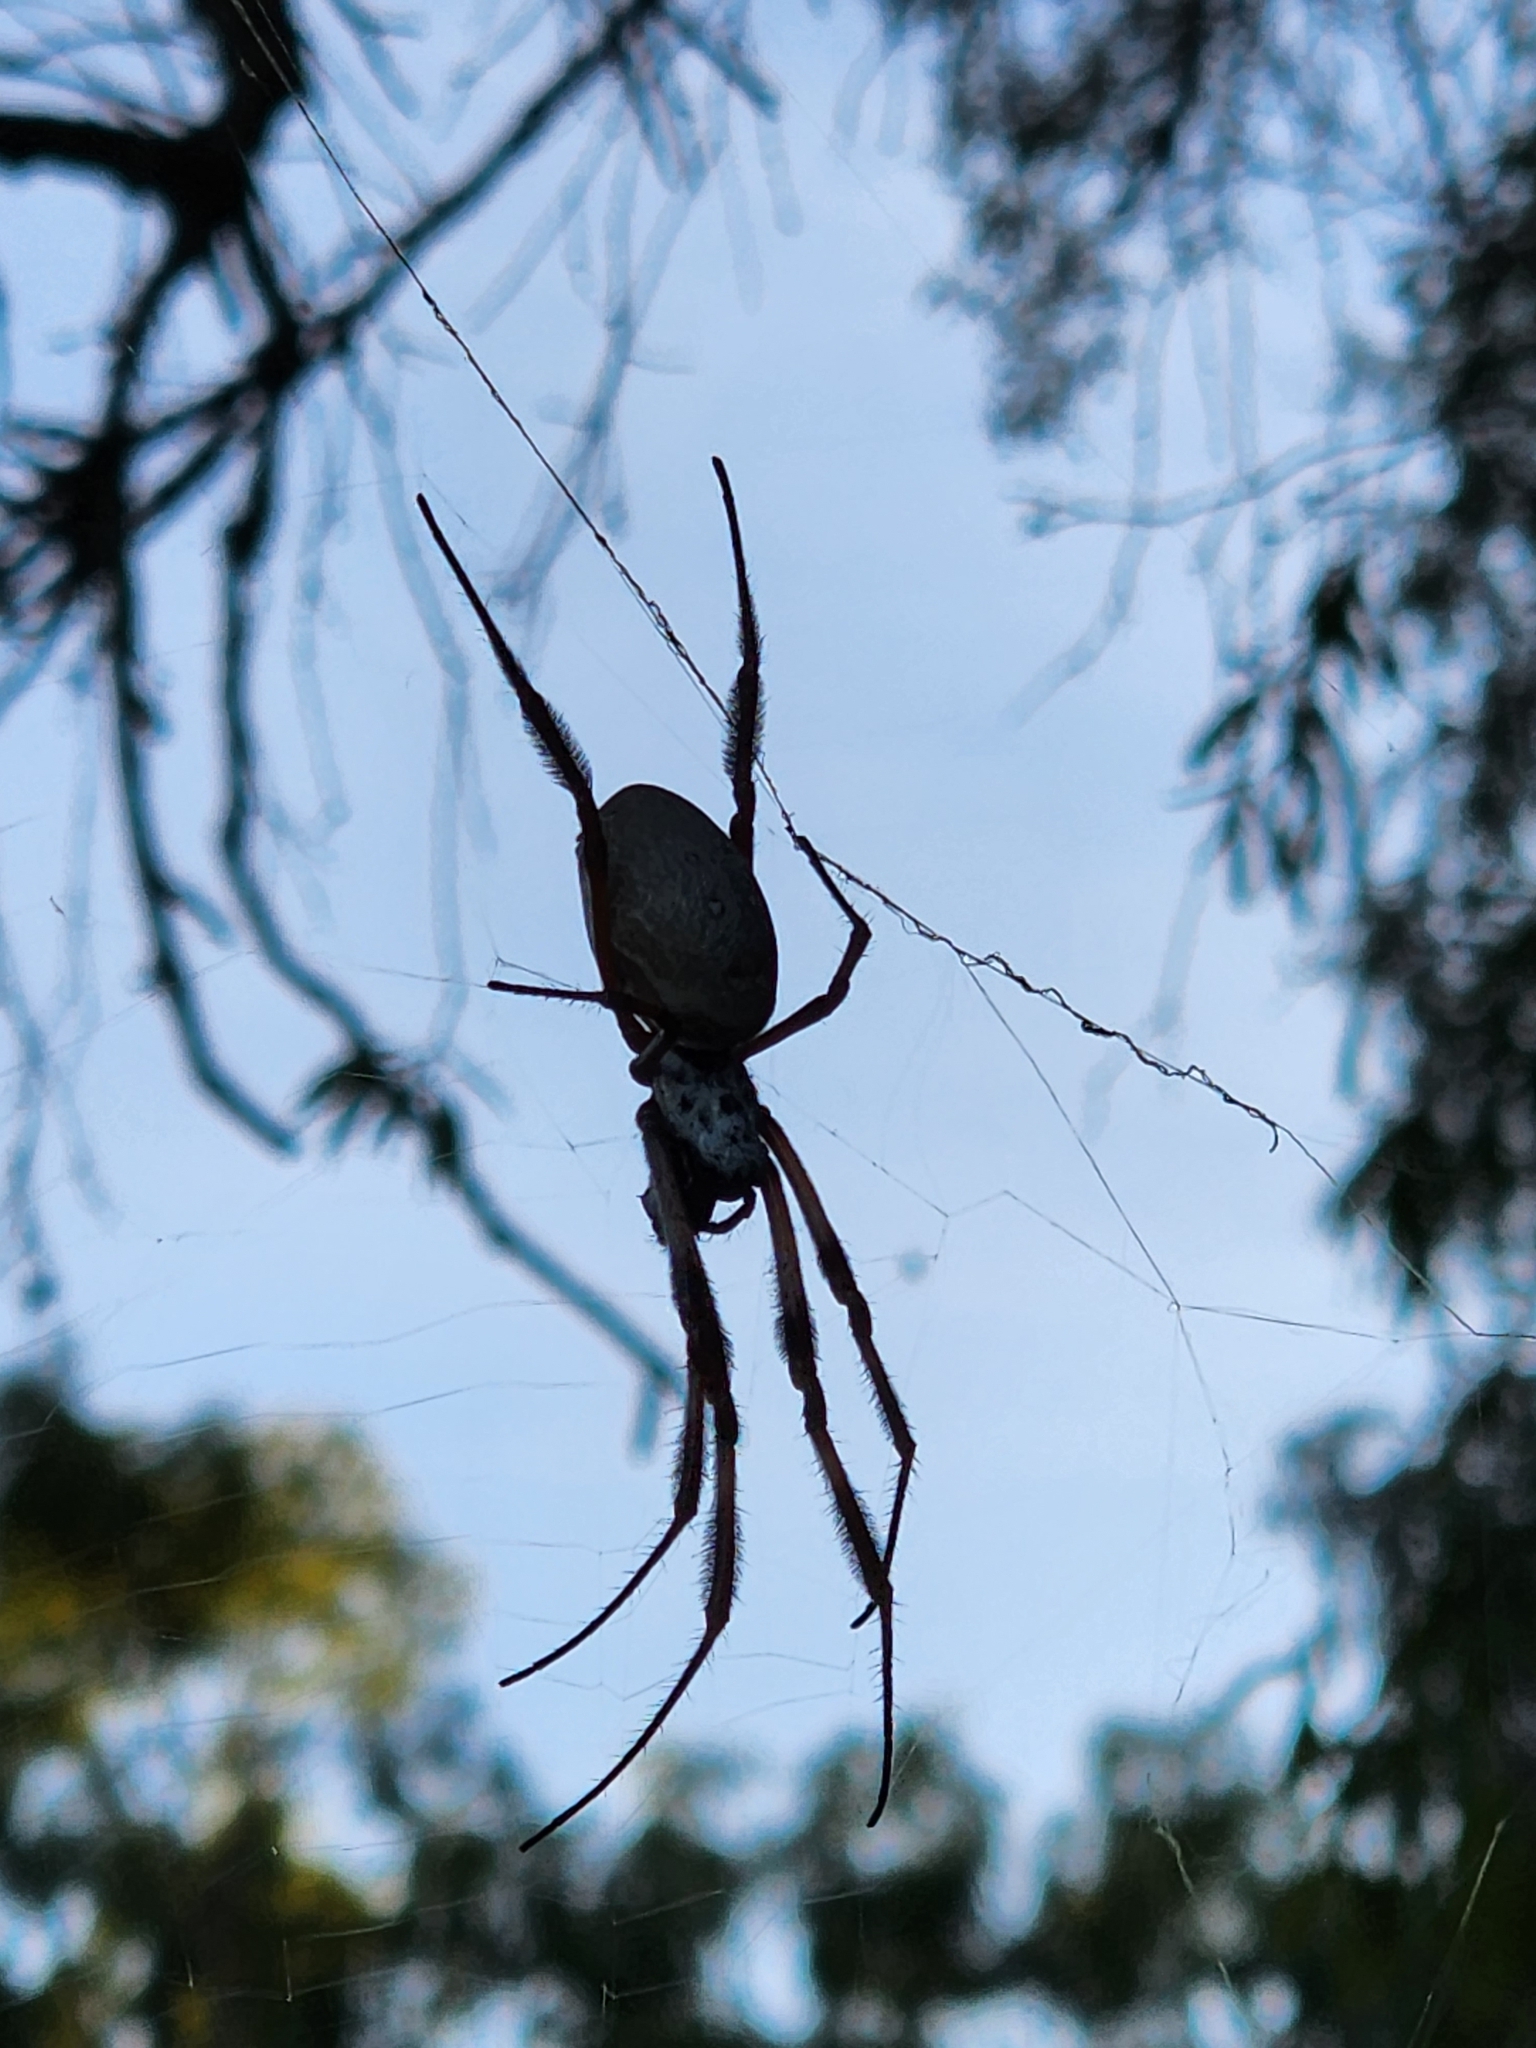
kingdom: Animalia
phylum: Arthropoda
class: Arachnida
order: Araneae
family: Araneidae
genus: Trichonephila
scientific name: Trichonephila edulis
